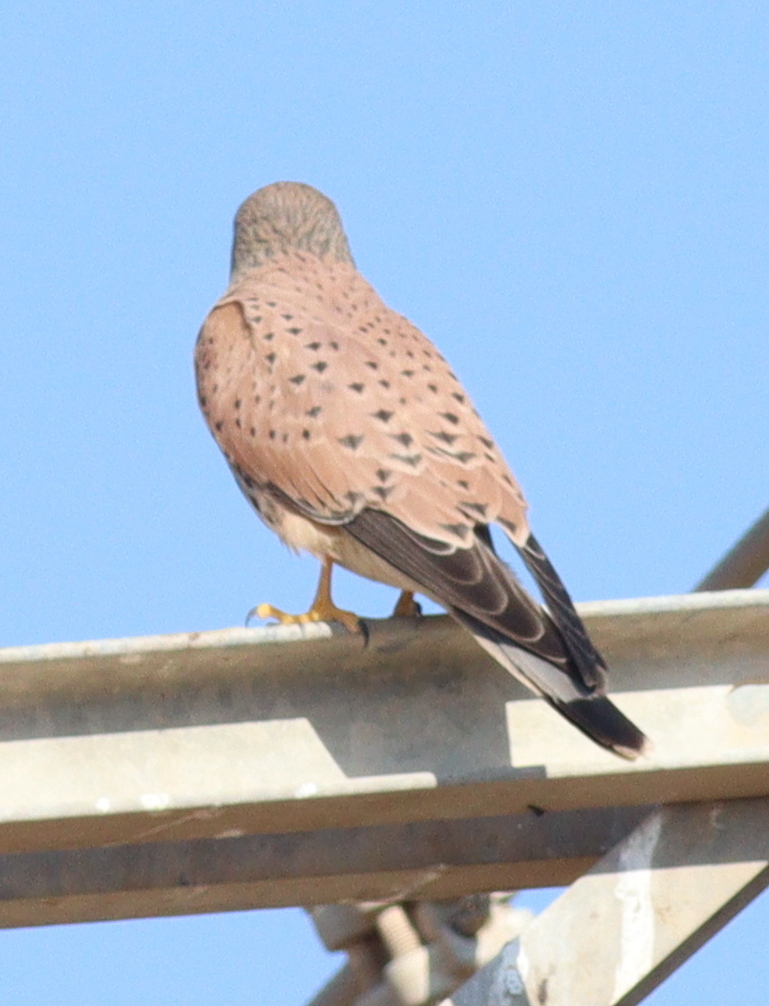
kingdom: Animalia
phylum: Chordata
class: Aves
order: Falconiformes
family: Falconidae
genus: Falco
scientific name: Falco tinnunculus
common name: Common kestrel
